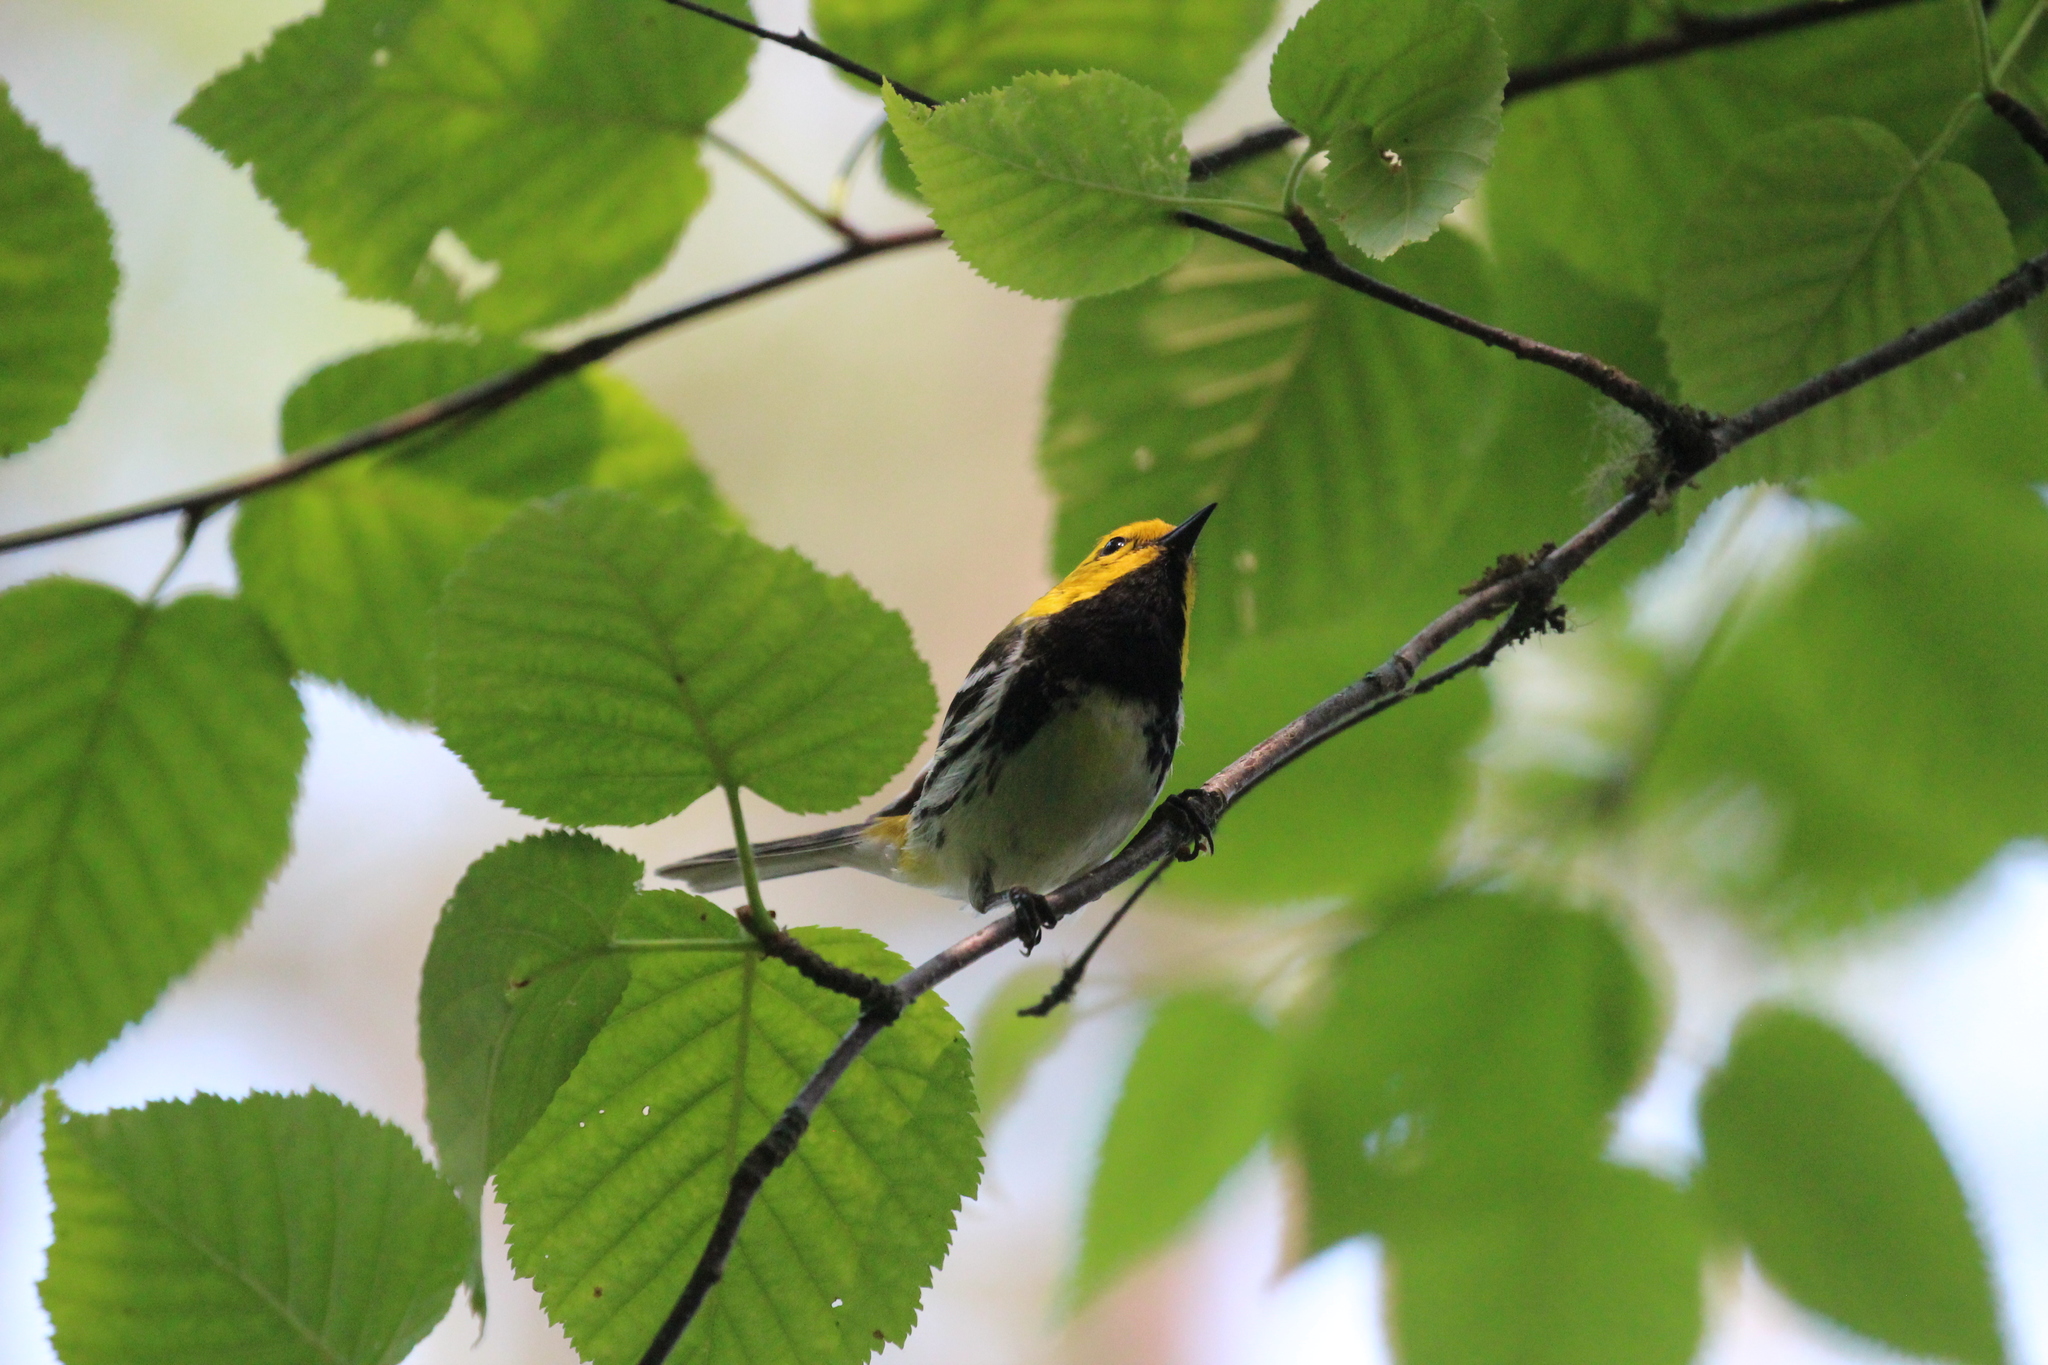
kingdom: Animalia
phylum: Chordata
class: Aves
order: Passeriformes
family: Parulidae
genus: Setophaga
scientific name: Setophaga virens
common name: Black-throated green warbler
